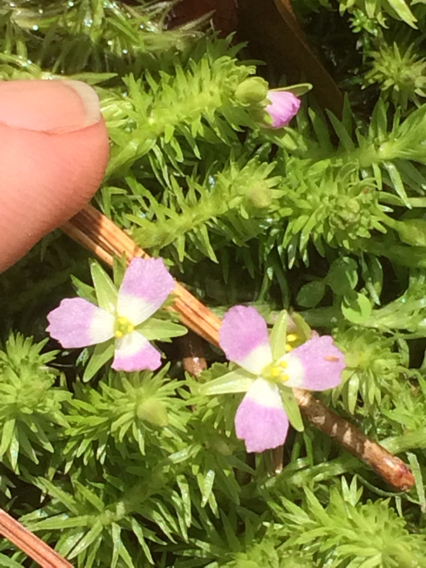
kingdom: Plantae
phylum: Tracheophyta
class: Liliopsida
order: Poales
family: Mayacaceae
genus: Mayaca
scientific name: Mayaca fluviatilis
